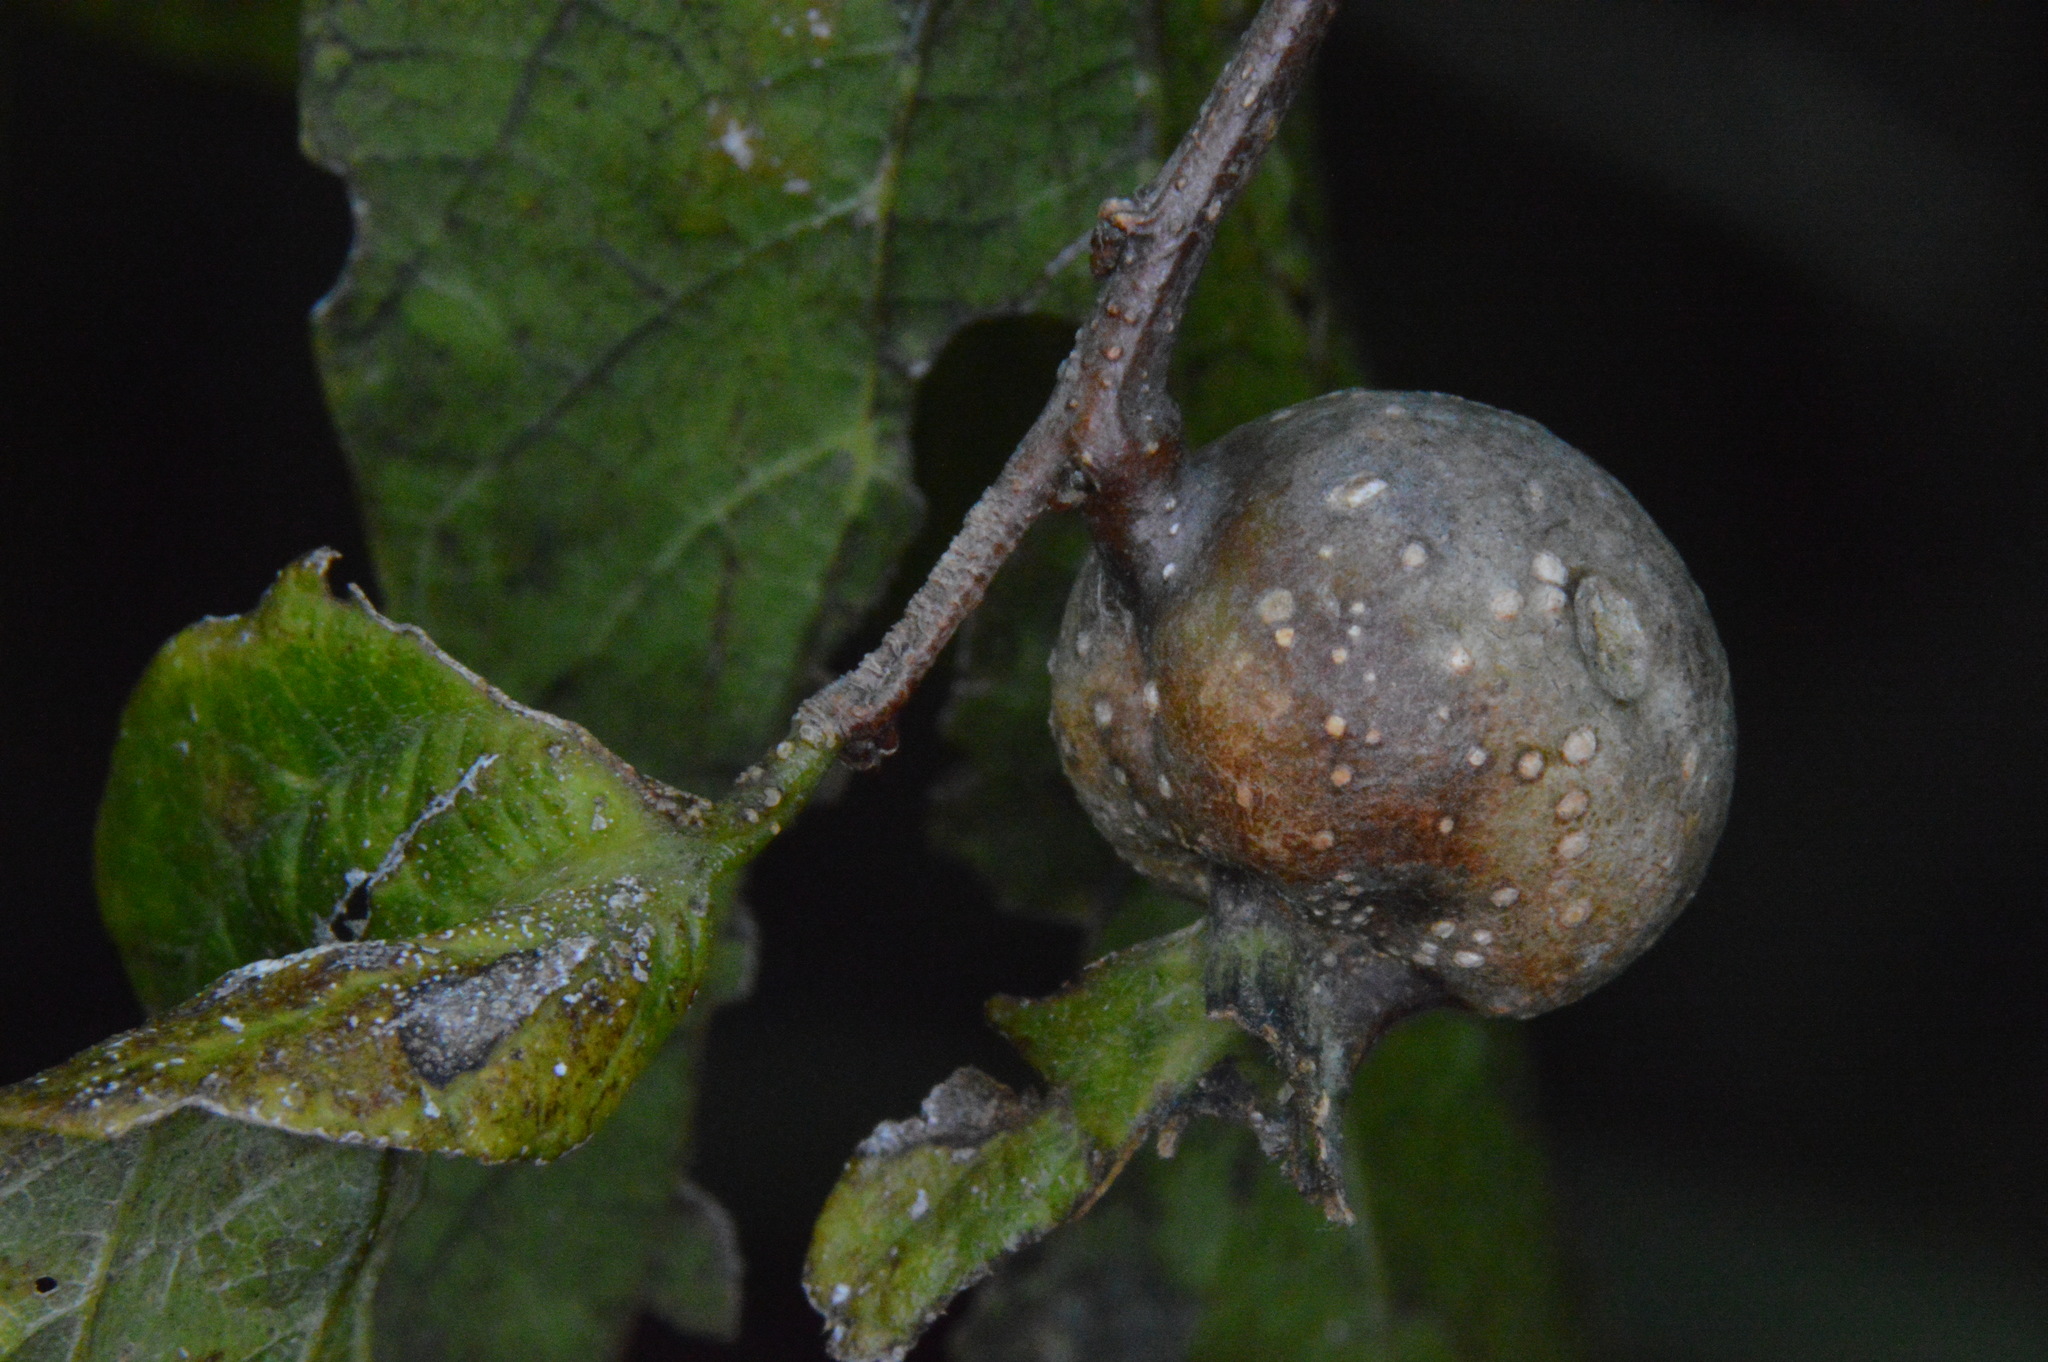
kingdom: Animalia
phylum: Arthropoda
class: Insecta
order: Hemiptera
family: Aphalaridae
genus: Pachypsylla
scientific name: Pachypsylla venusta
